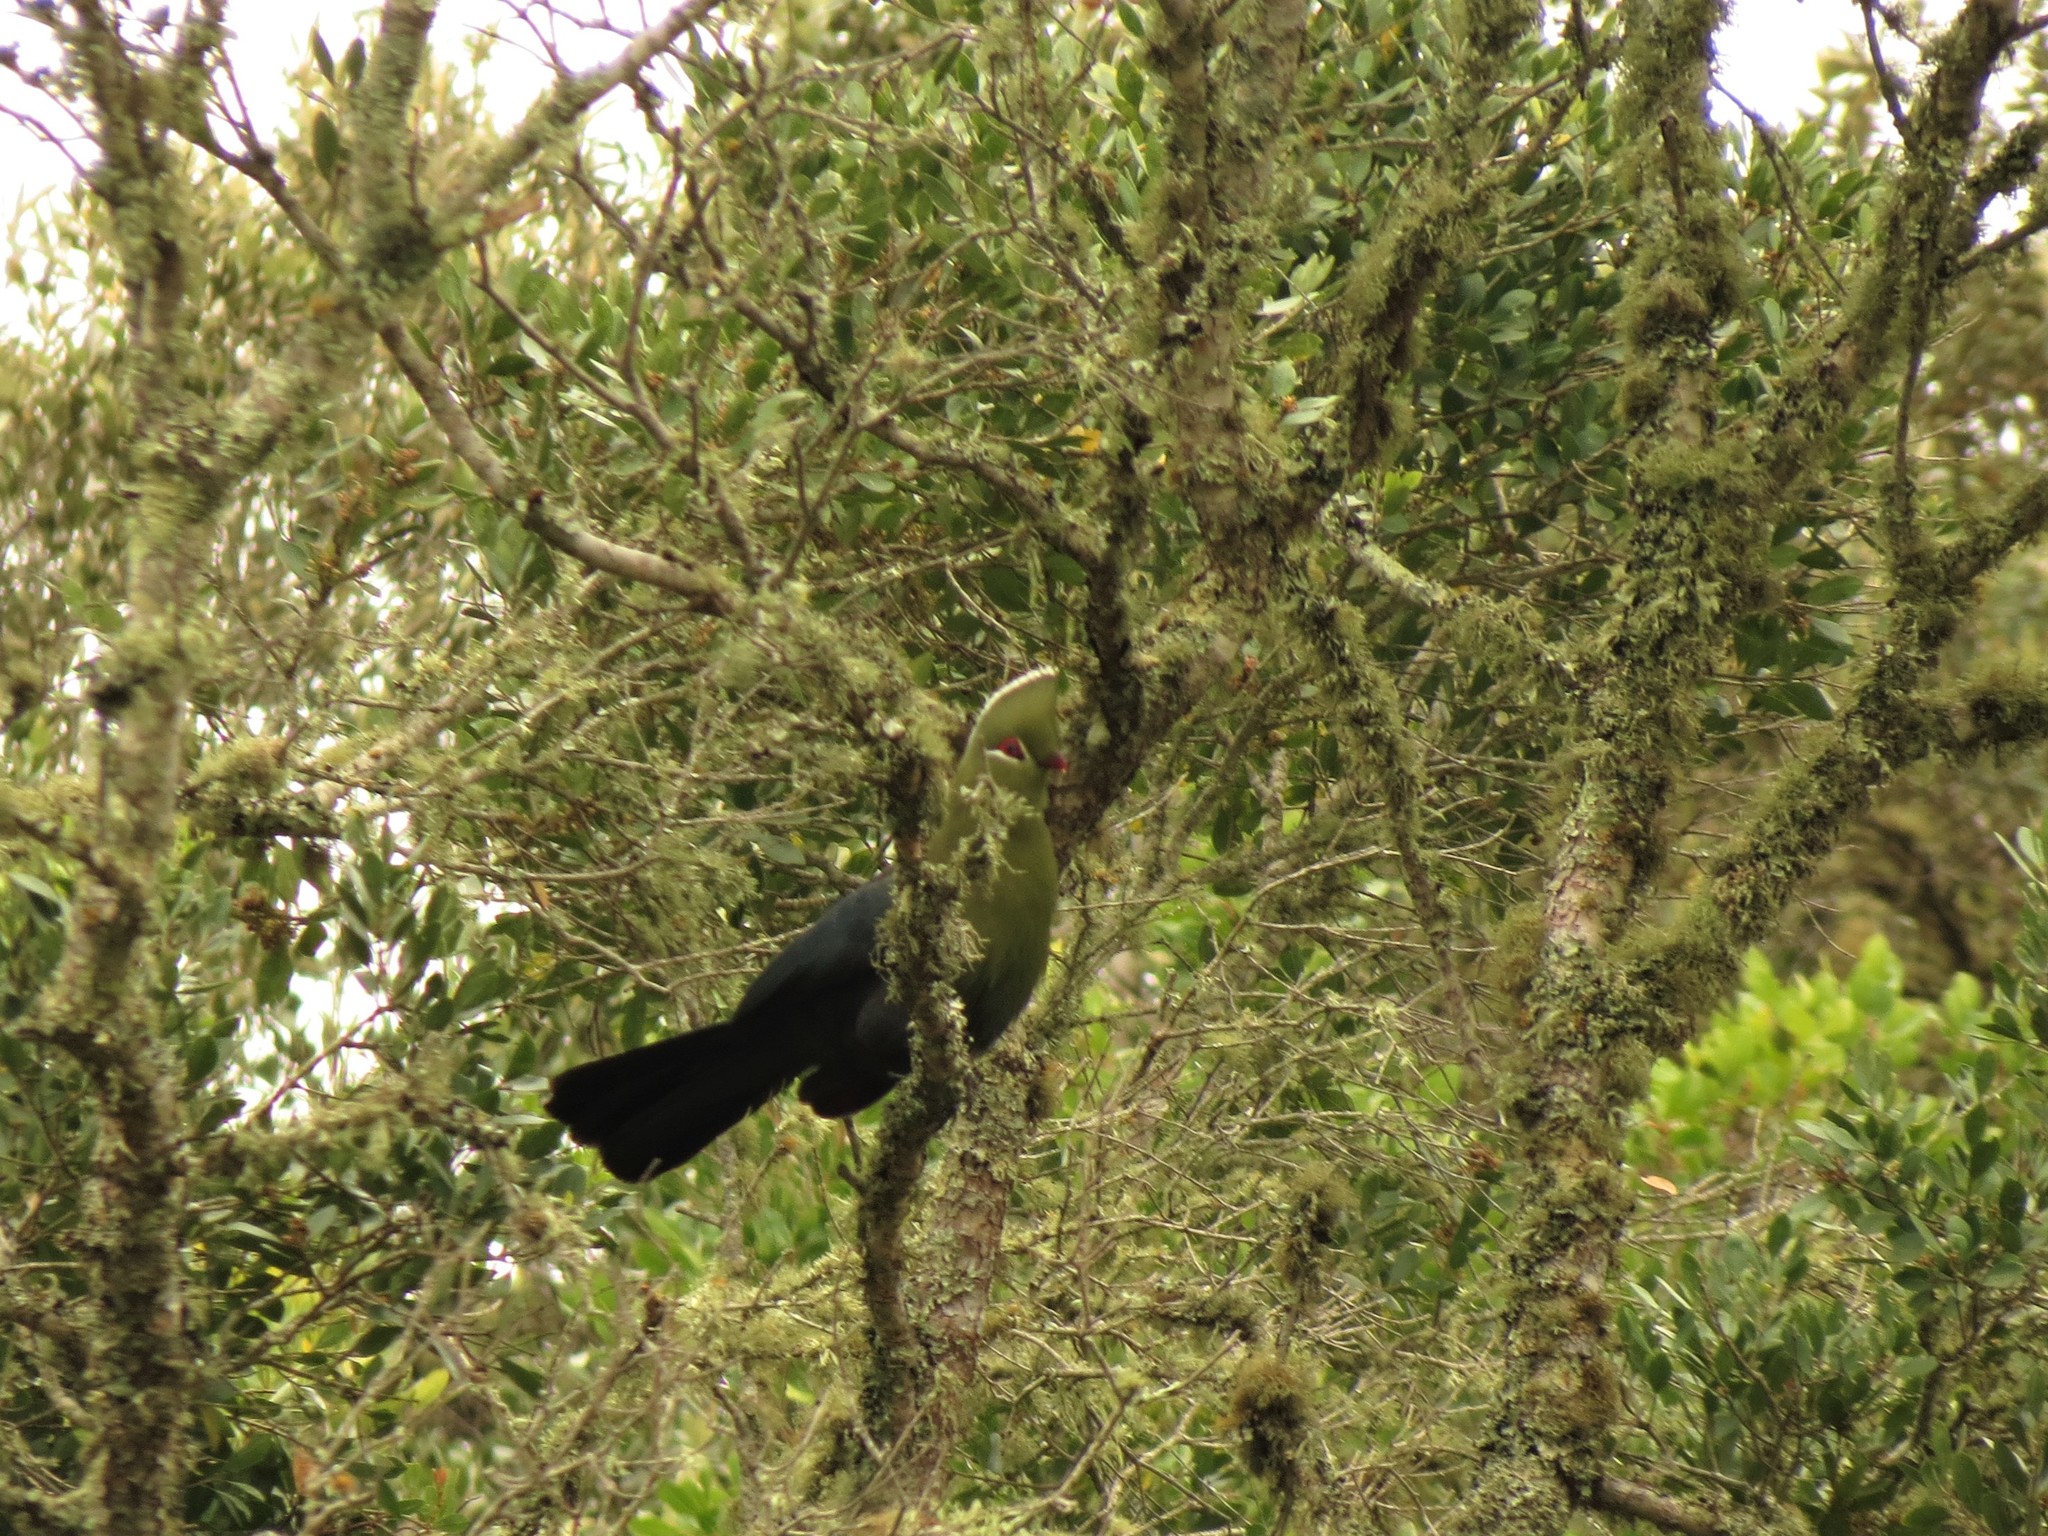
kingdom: Animalia
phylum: Chordata
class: Aves
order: Musophagiformes
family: Musophagidae
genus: Tauraco
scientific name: Tauraco corythaix
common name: Knysna turaco
